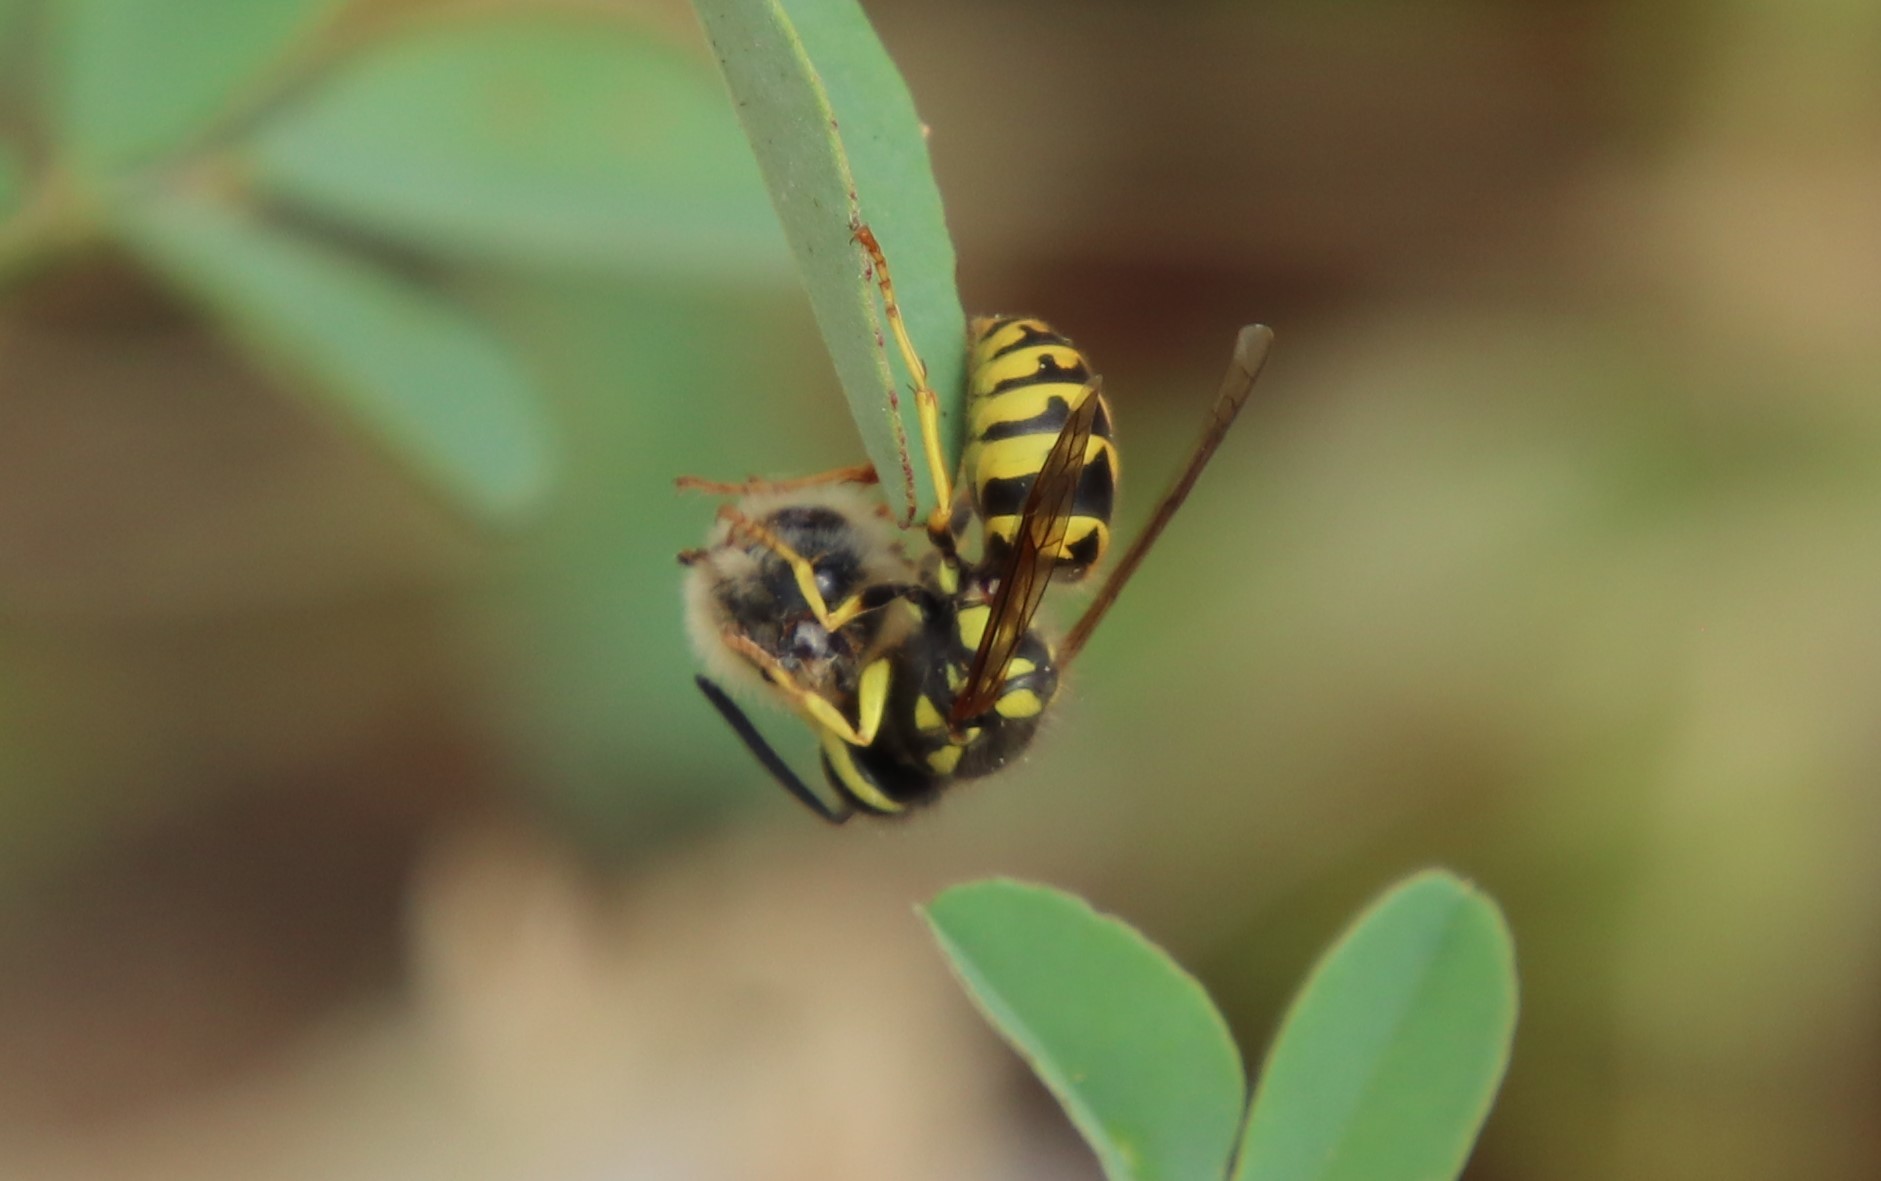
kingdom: Animalia
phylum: Arthropoda
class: Insecta
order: Hymenoptera
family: Vespidae
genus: Vespula
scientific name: Vespula pensylvanica
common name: Western yellowjacket
